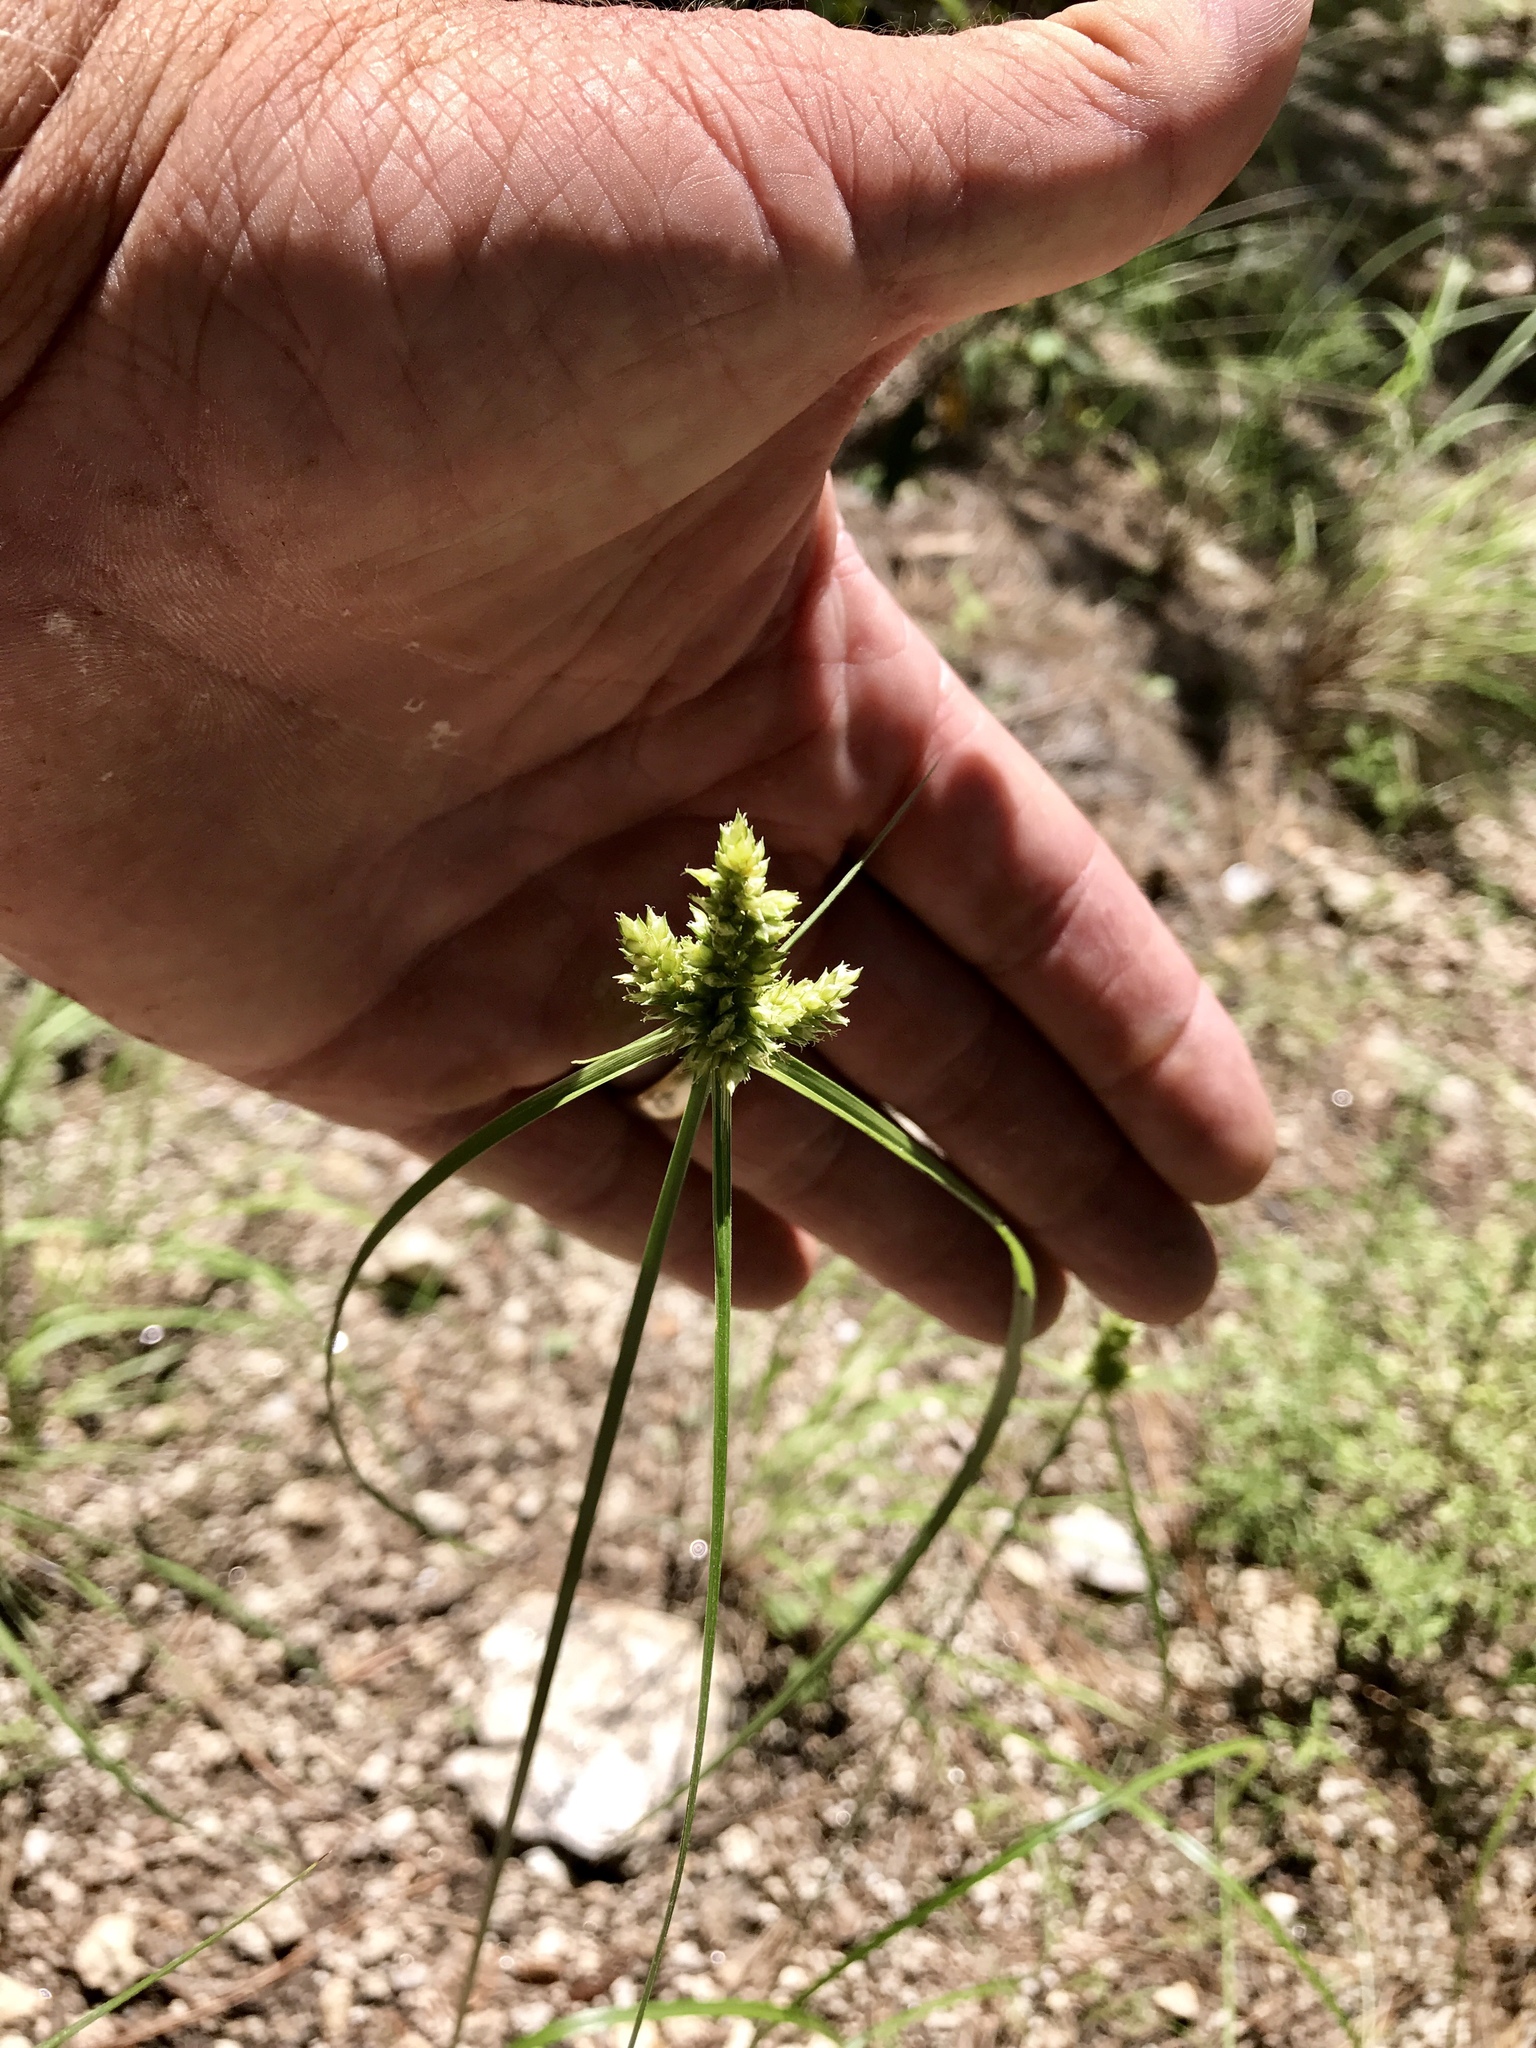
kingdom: Plantae
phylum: Tracheophyta
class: Liliopsida
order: Poales
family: Cyperaceae
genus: Cyperus
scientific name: Cyperus fendlerianus
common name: Fendler flat sedge
